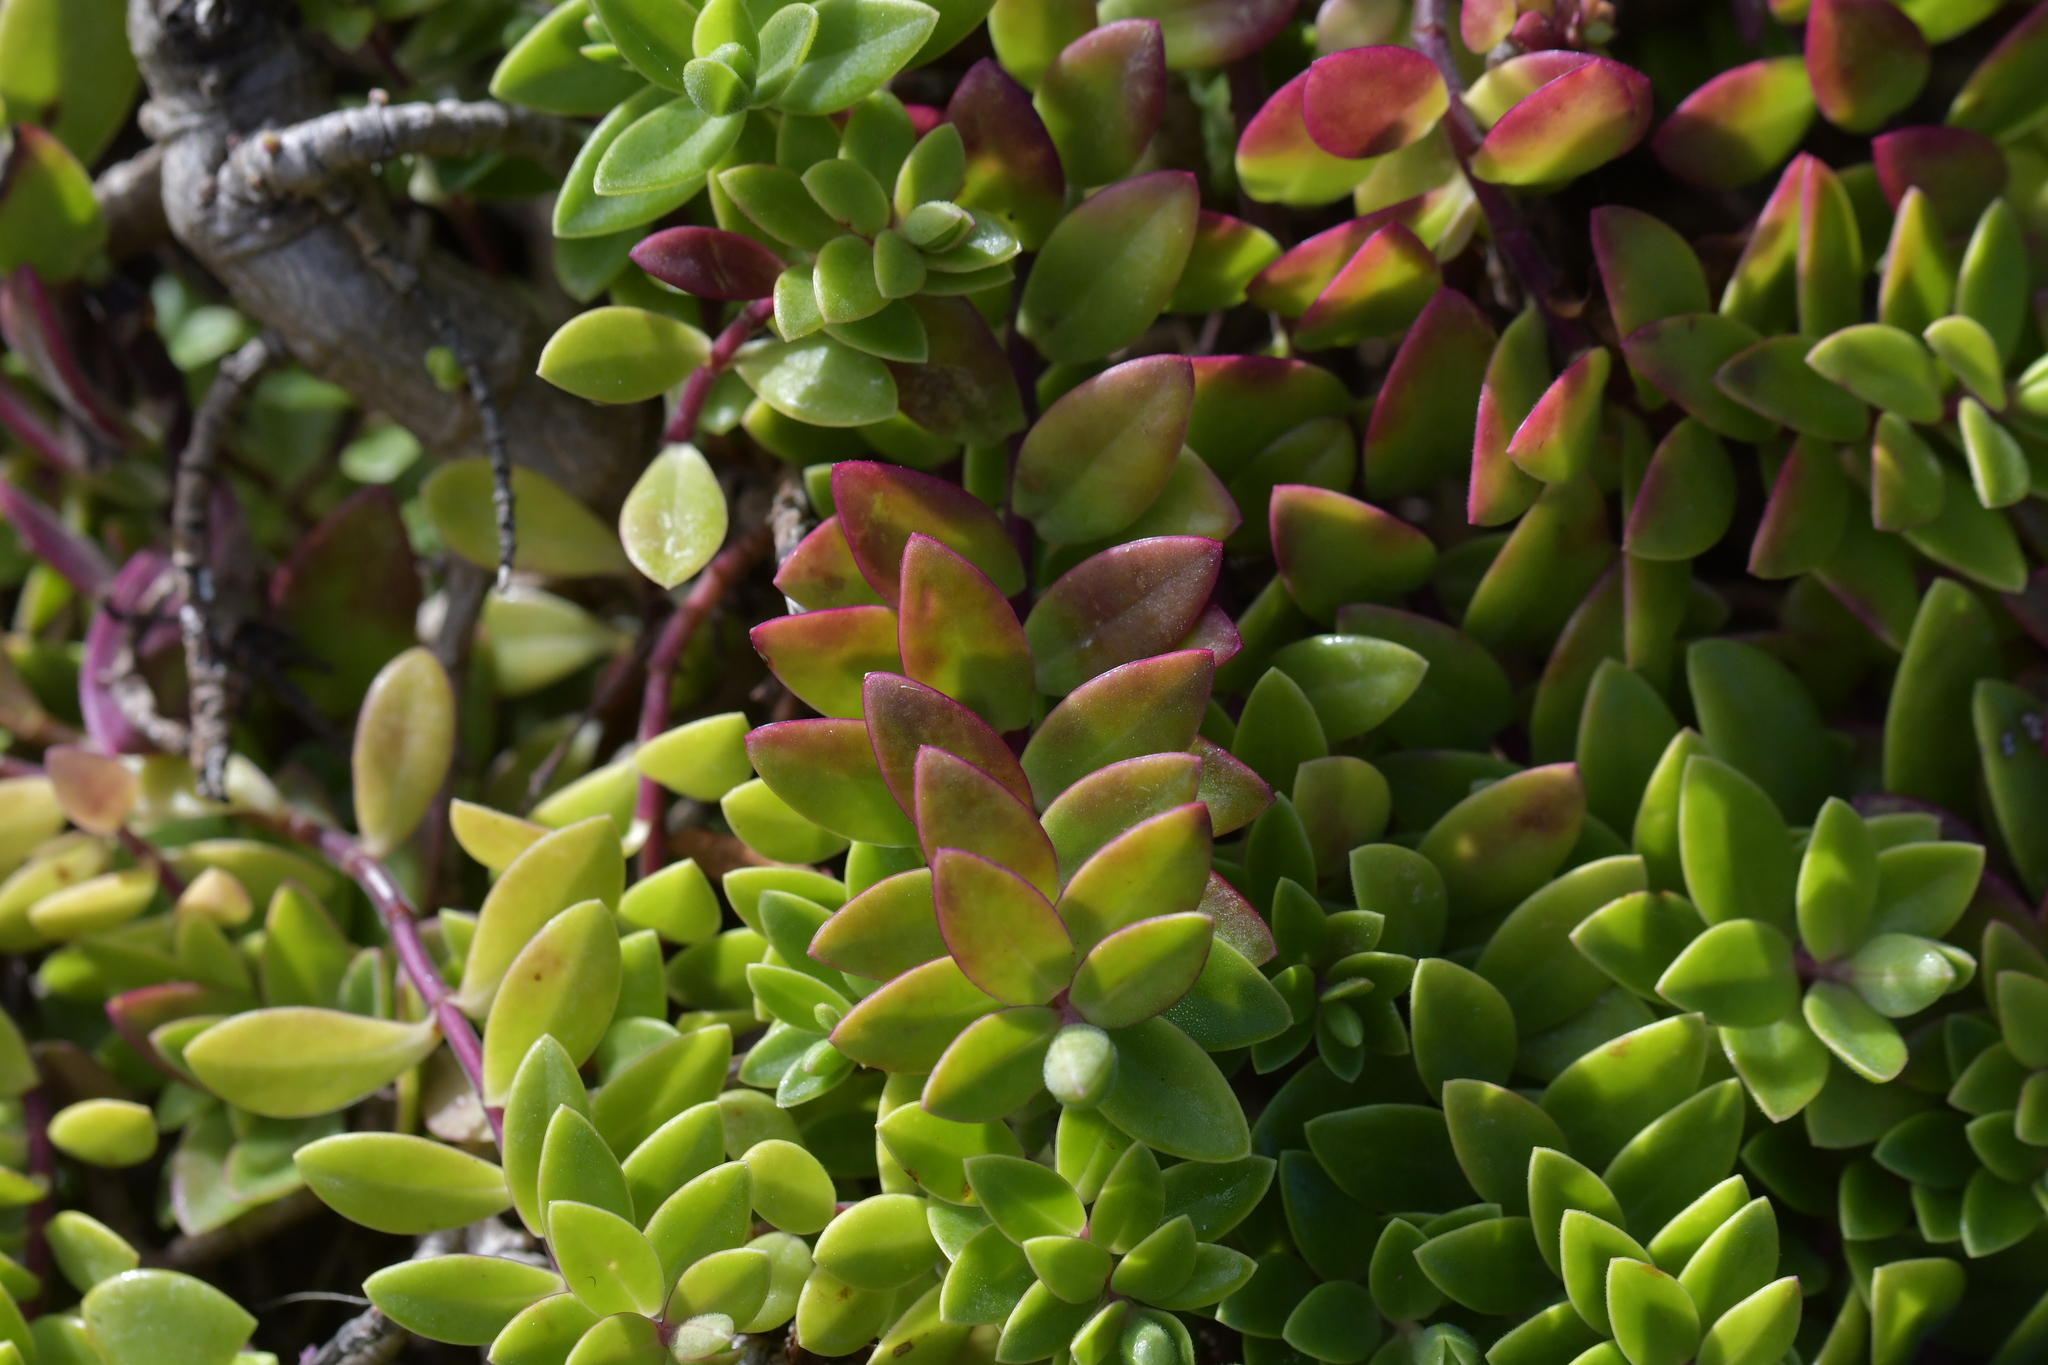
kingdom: Plantae
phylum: Tracheophyta
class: Magnoliopsida
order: Lamiales
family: Plantaginaceae
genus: Veronica
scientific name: Veronica chathamica
